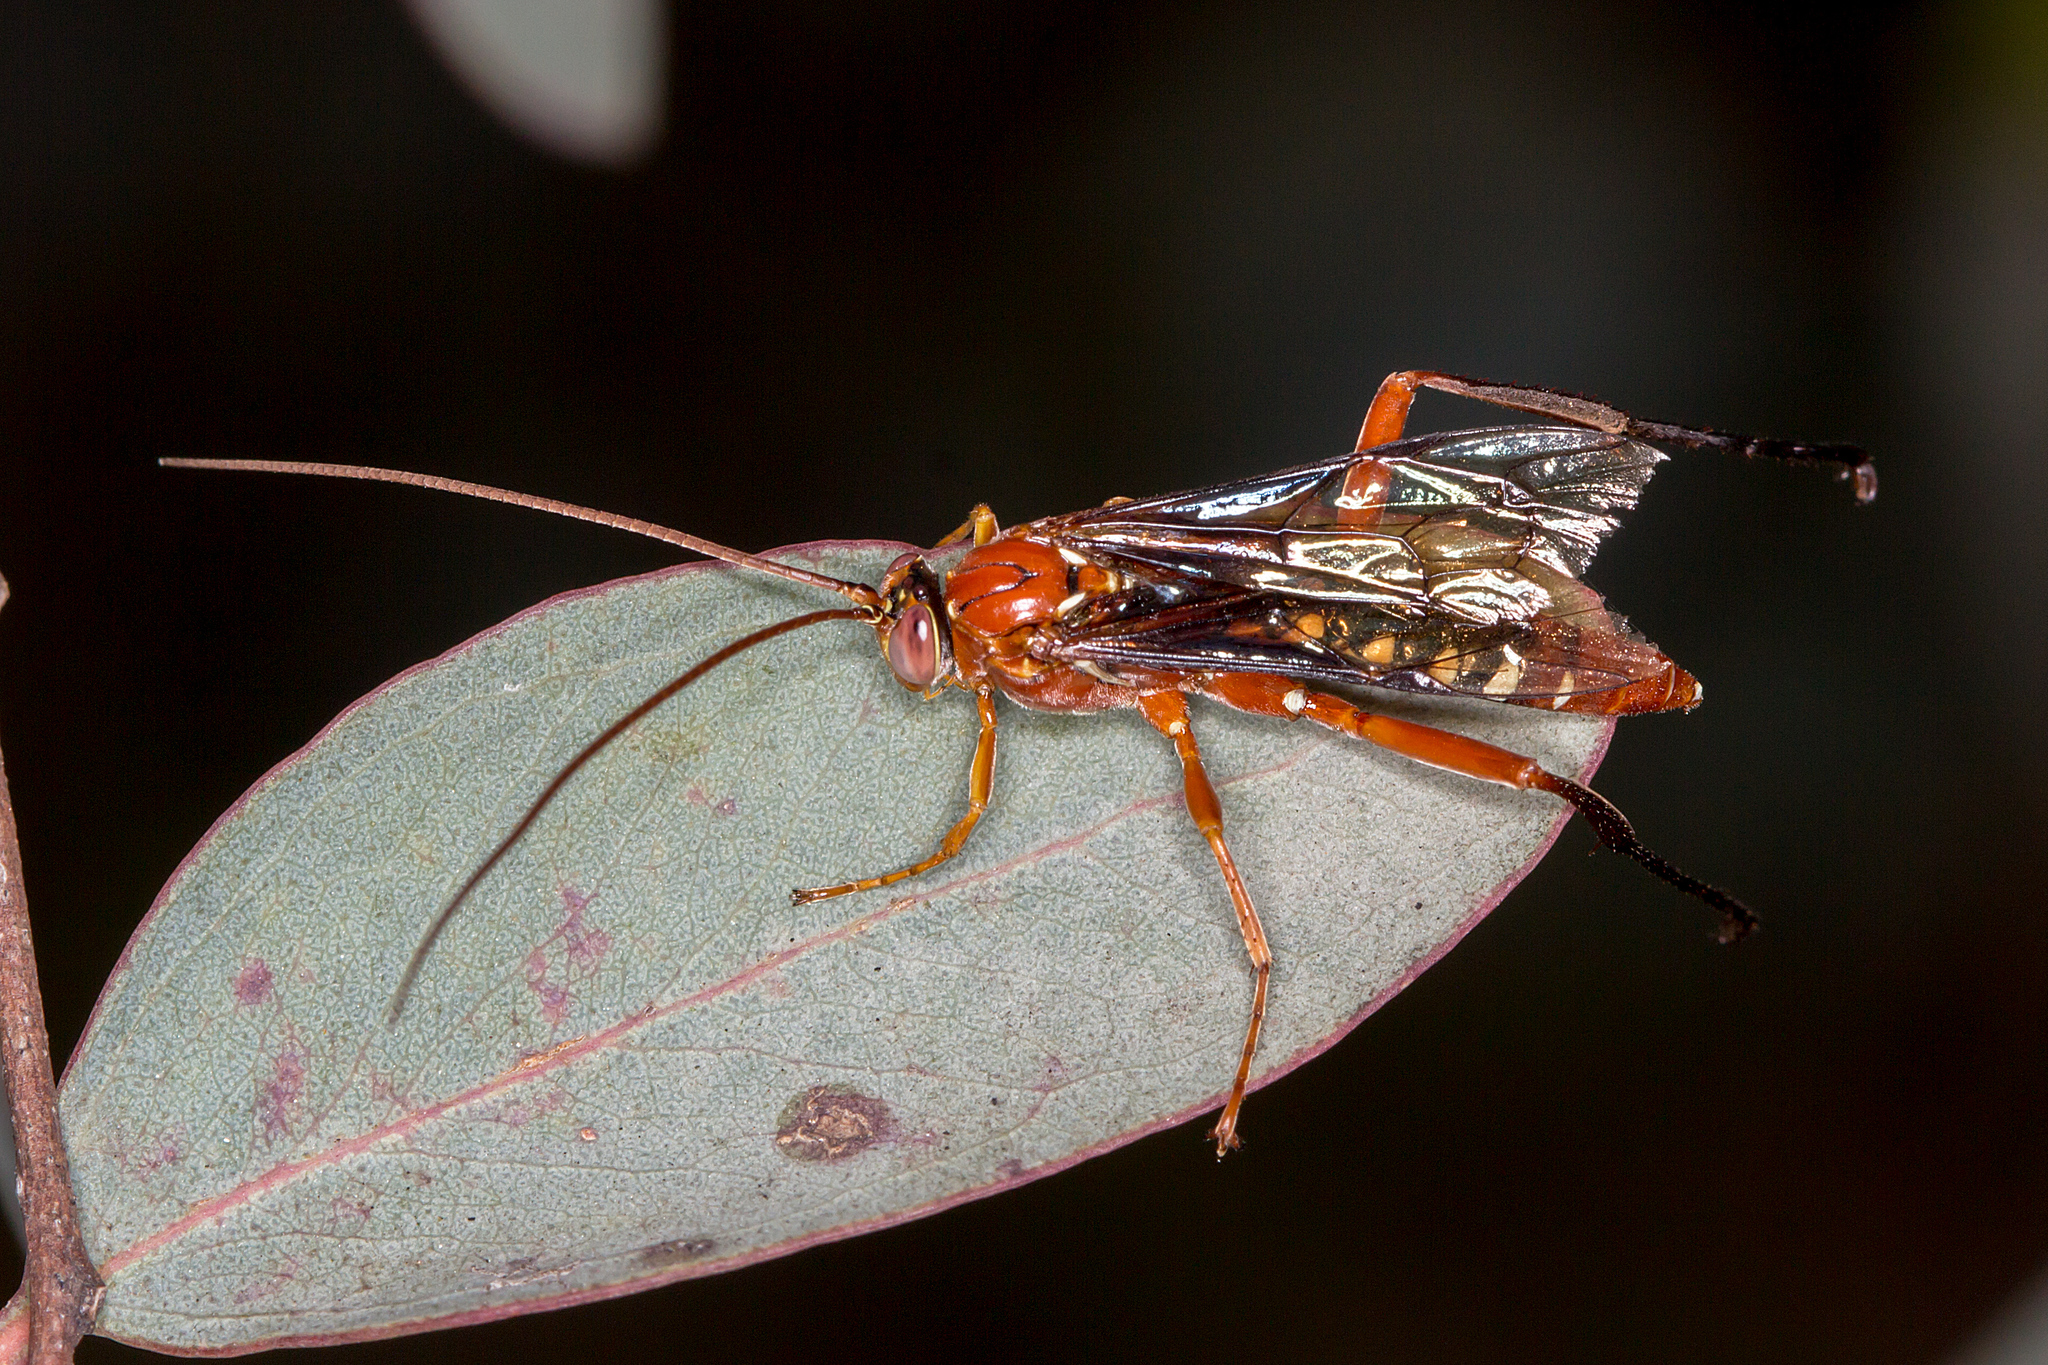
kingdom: Animalia
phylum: Arthropoda
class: Insecta
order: Hymenoptera
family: Ichneumonidae
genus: Lissopimpla
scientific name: Lissopimpla excelsa
